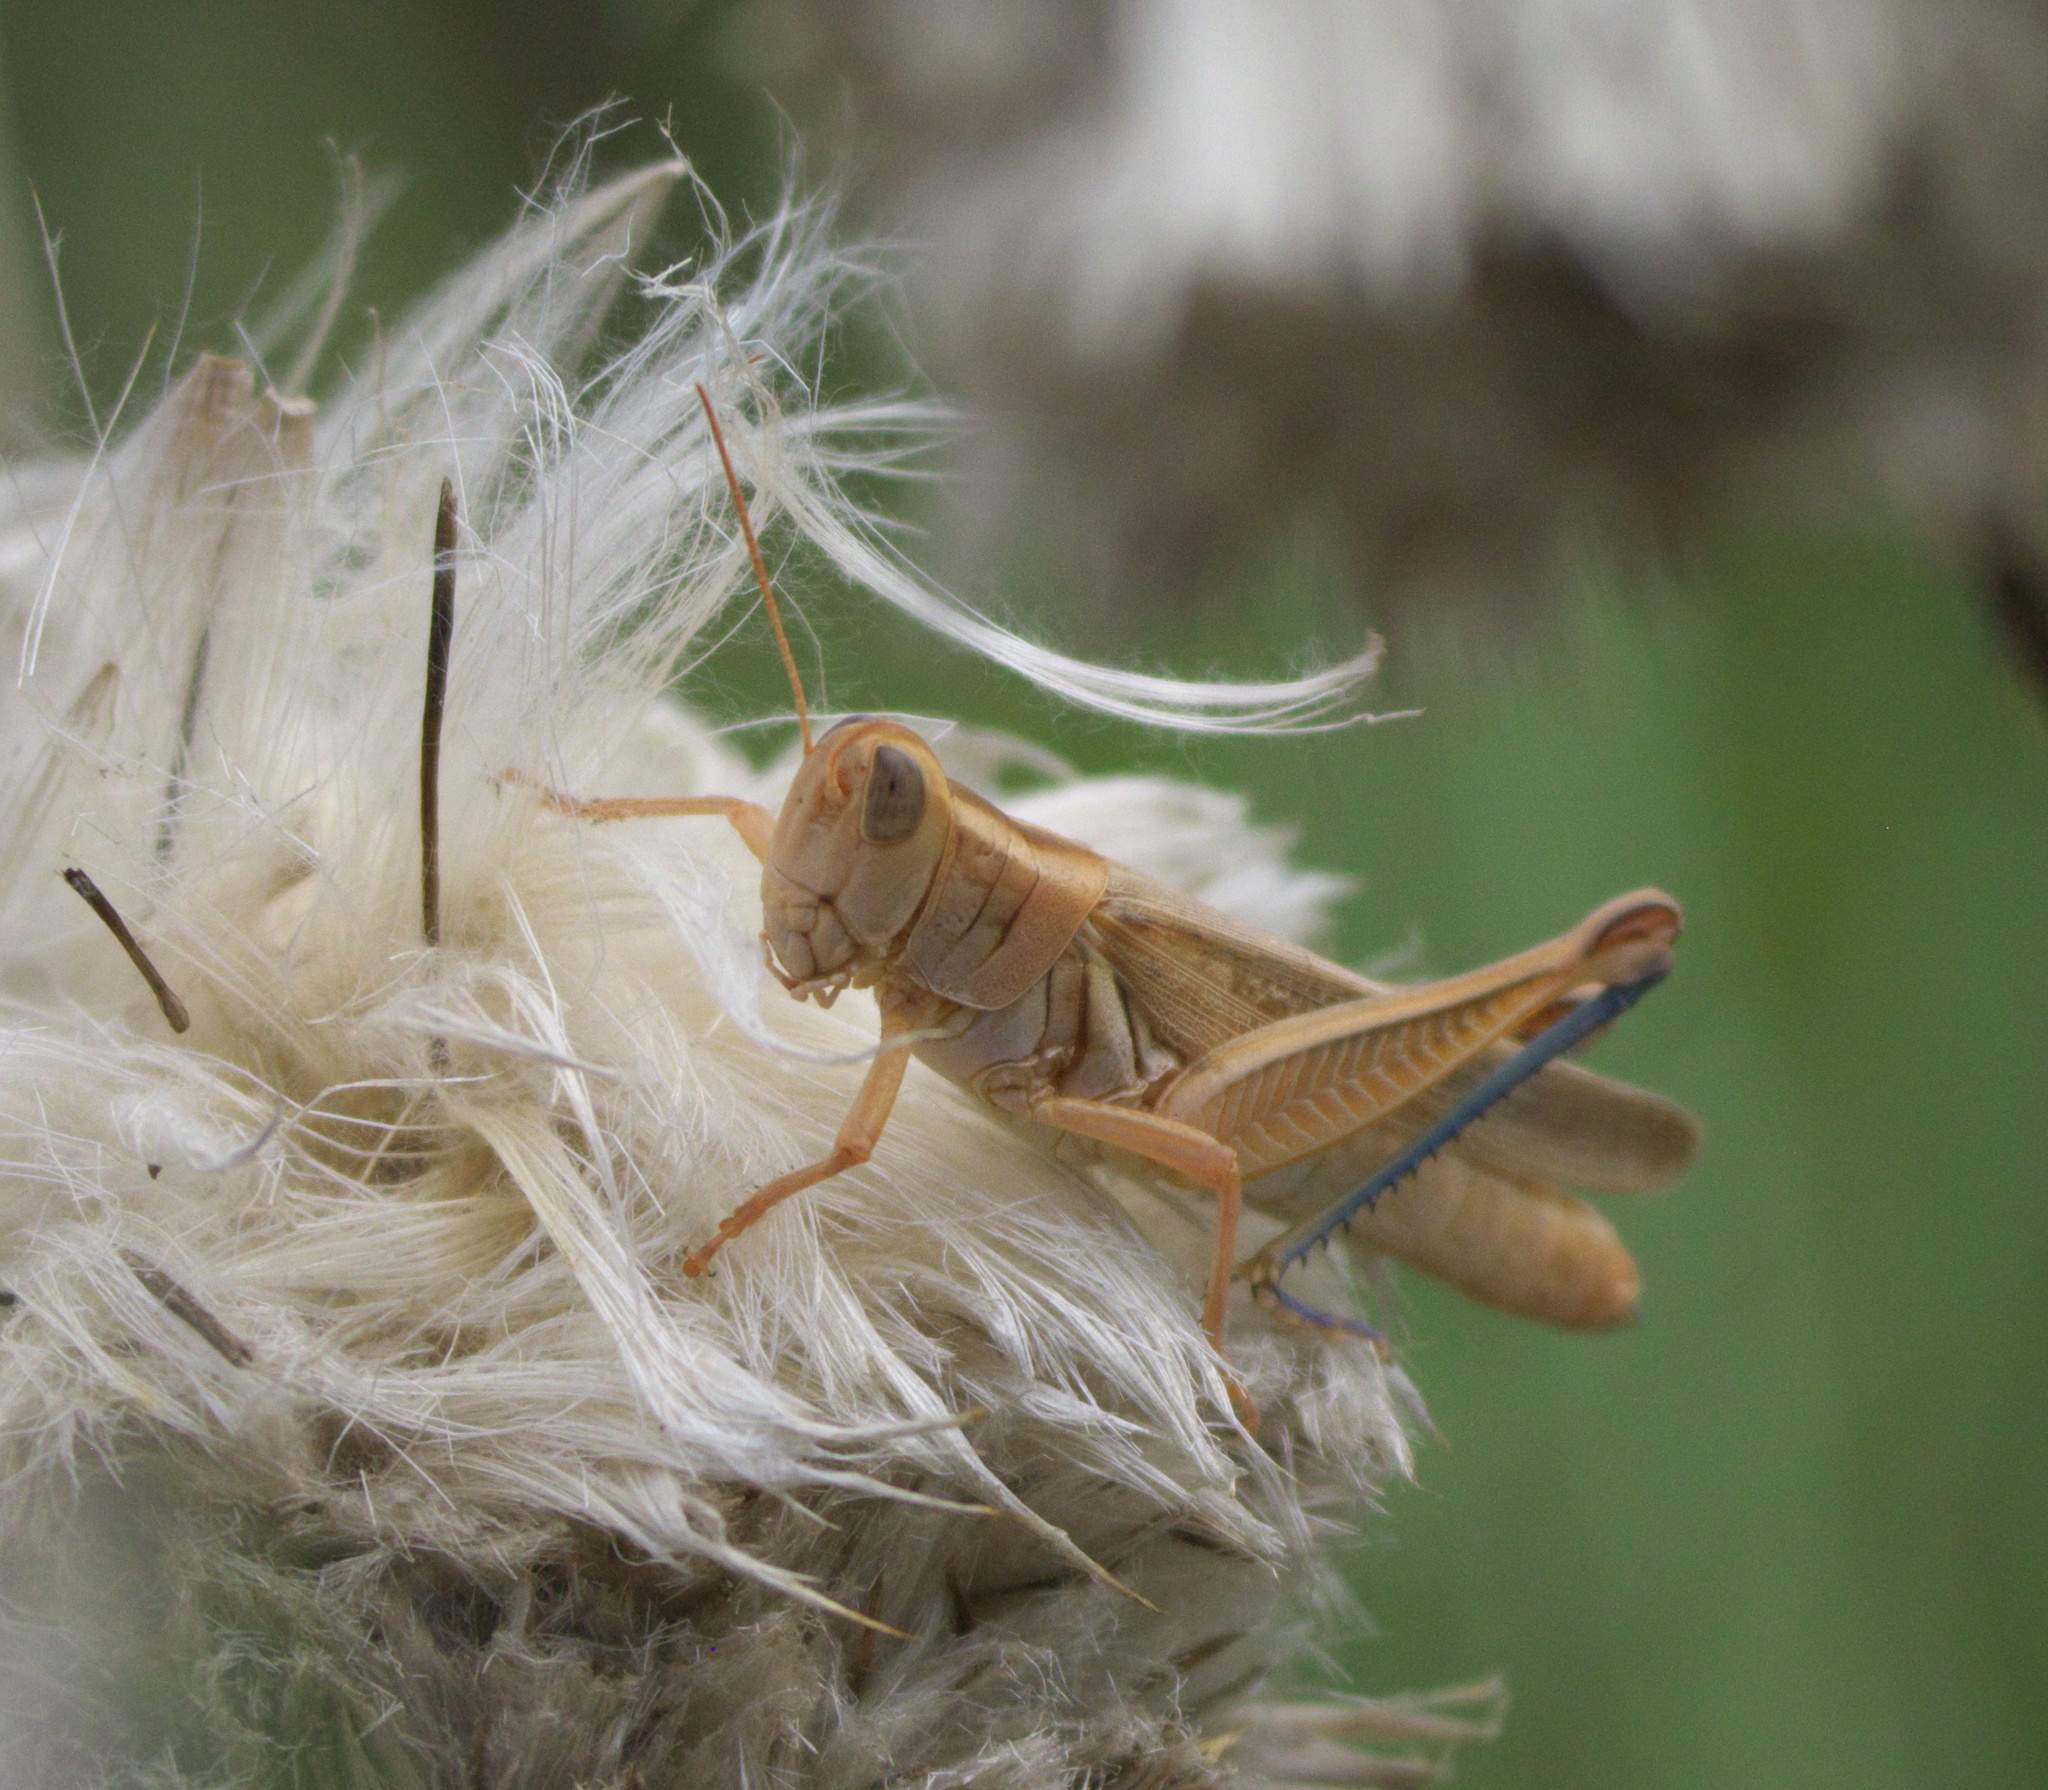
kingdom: Animalia
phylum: Arthropoda
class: Insecta
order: Orthoptera
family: Acrididae
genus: Melanoplus
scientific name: Melanoplus packardii
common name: Packard's grasshopper
